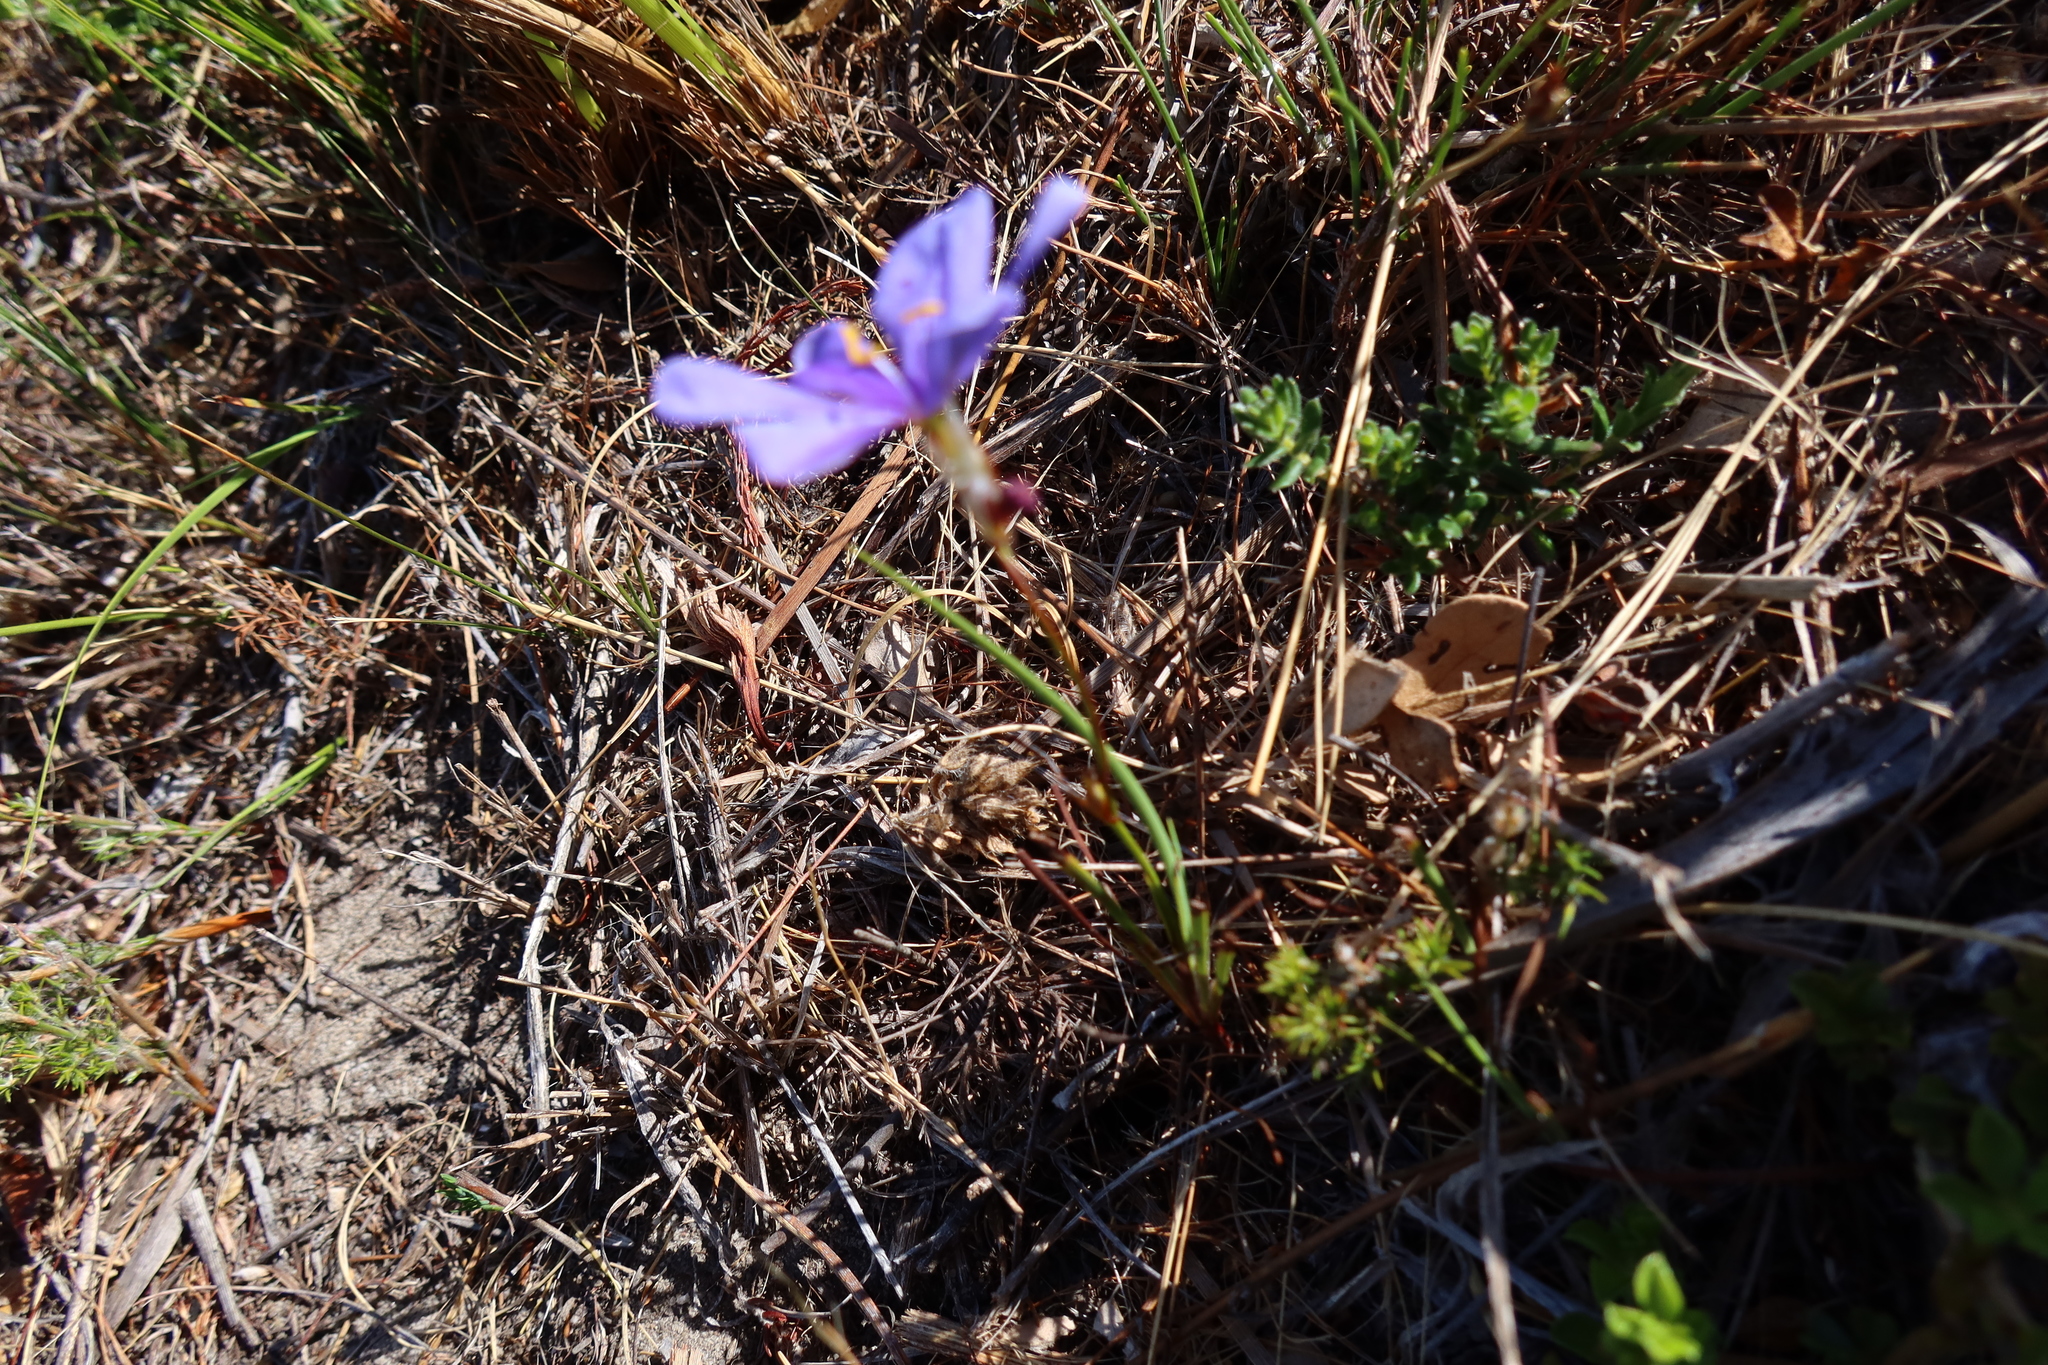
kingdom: Plantae
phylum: Tracheophyta
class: Liliopsida
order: Asparagales
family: Iridaceae
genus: Aristea
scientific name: Aristea juncifolia
